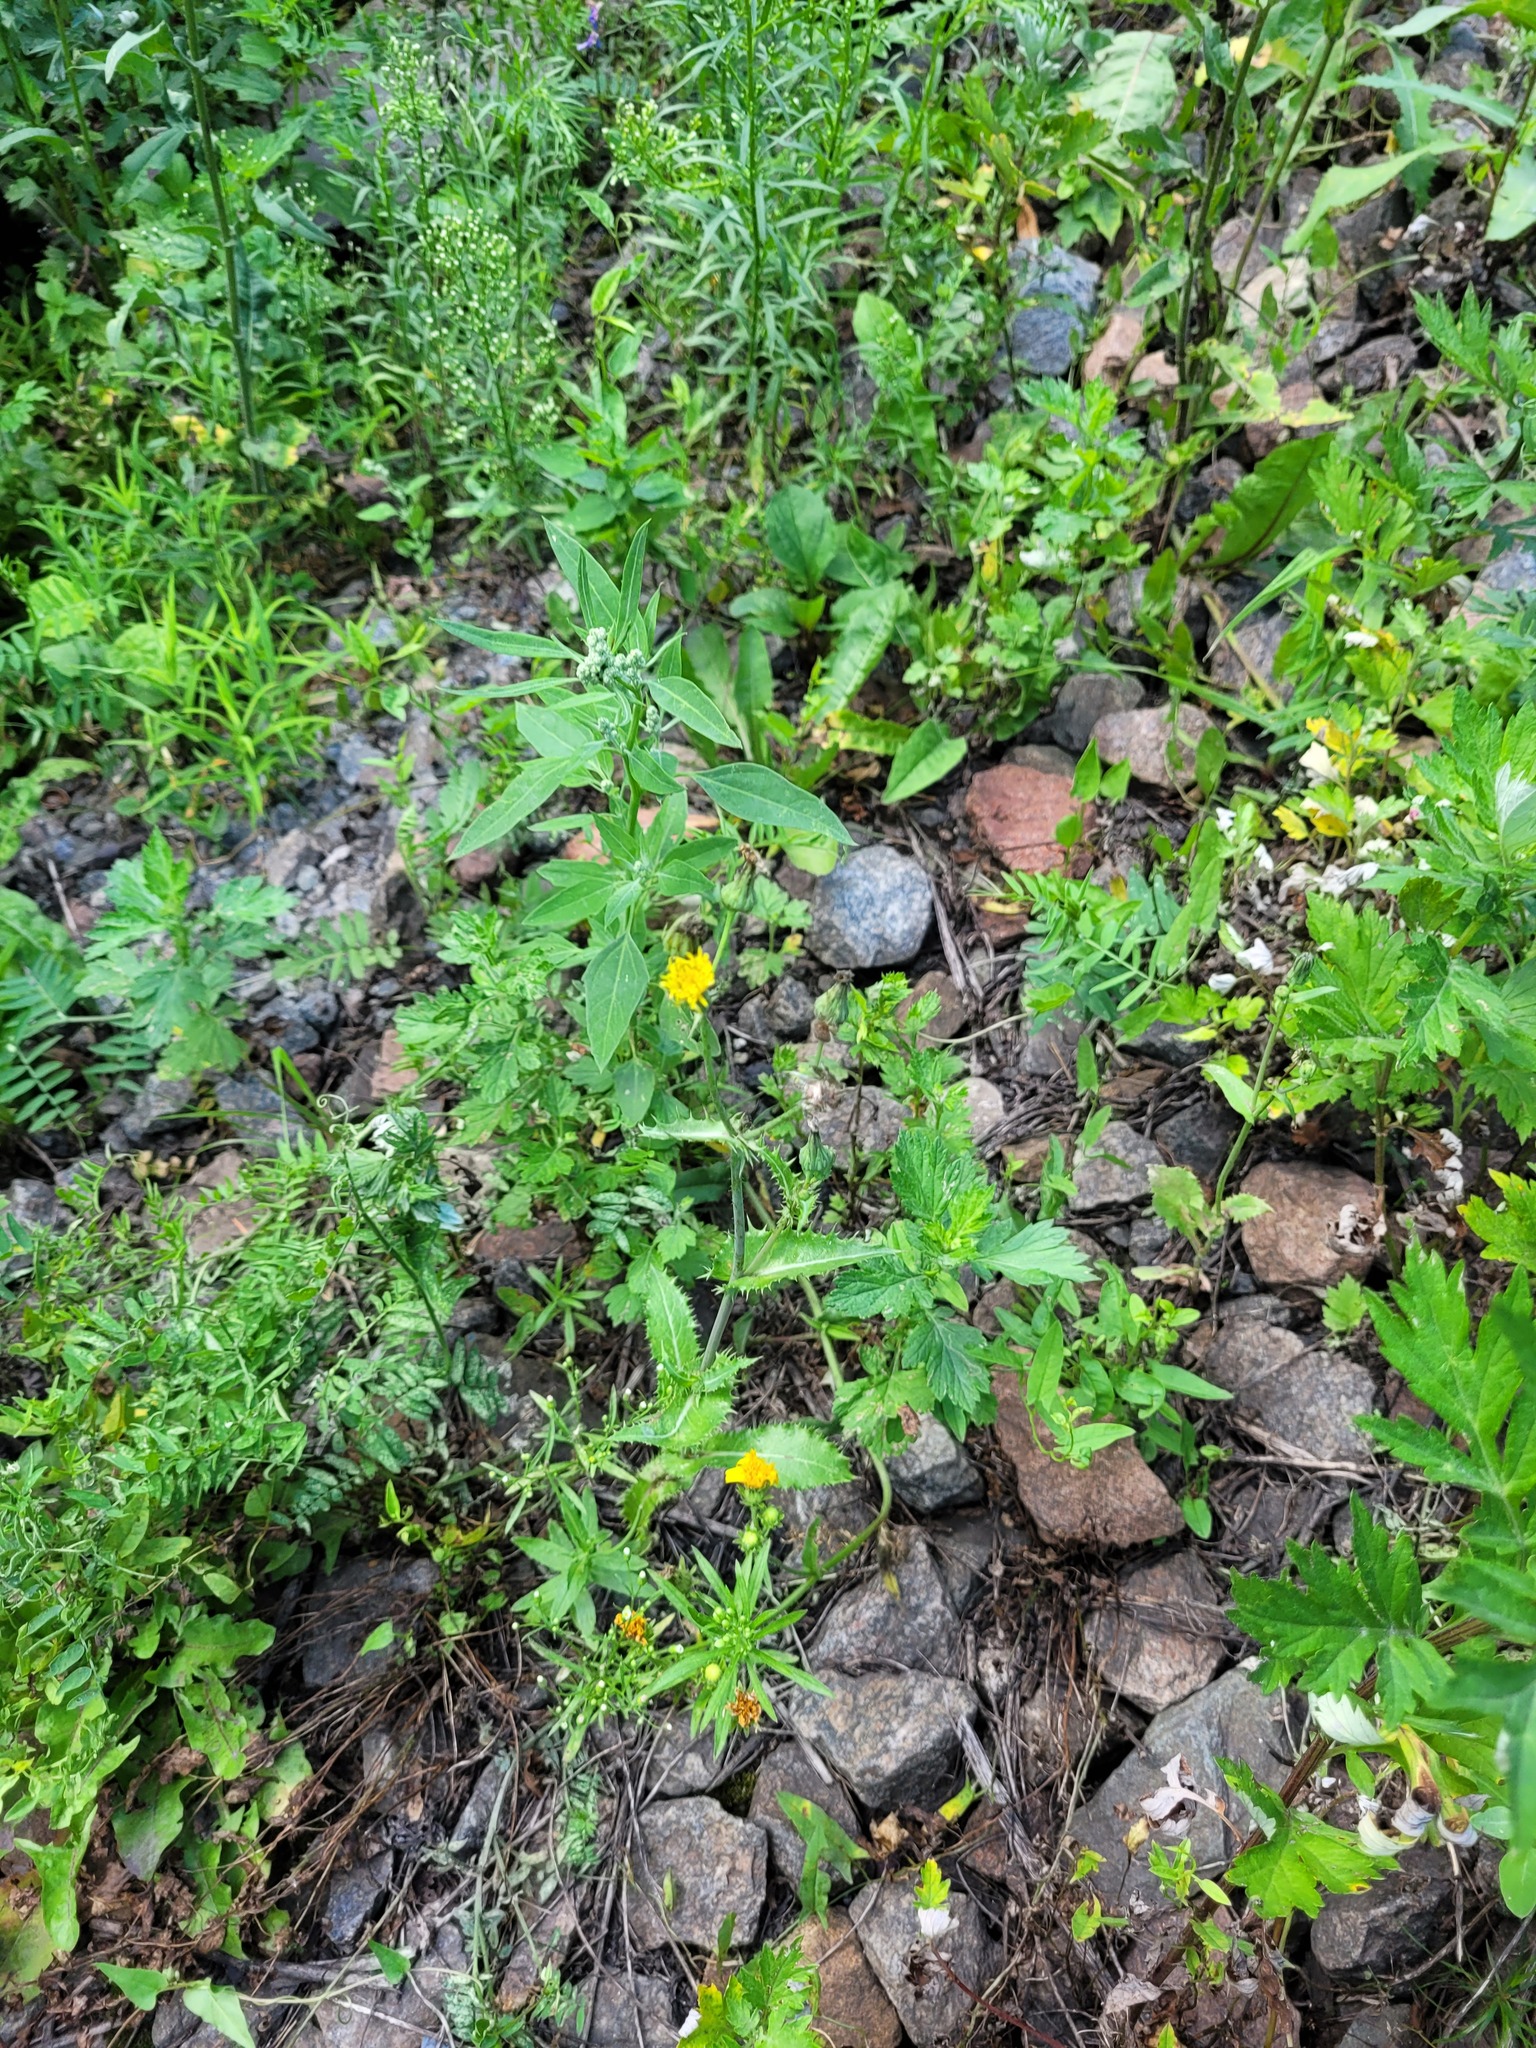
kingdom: Plantae
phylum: Tracheophyta
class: Magnoliopsida
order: Asterales
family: Asteraceae
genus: Sonchus
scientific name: Sonchus asper
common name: Prickly sow-thistle
